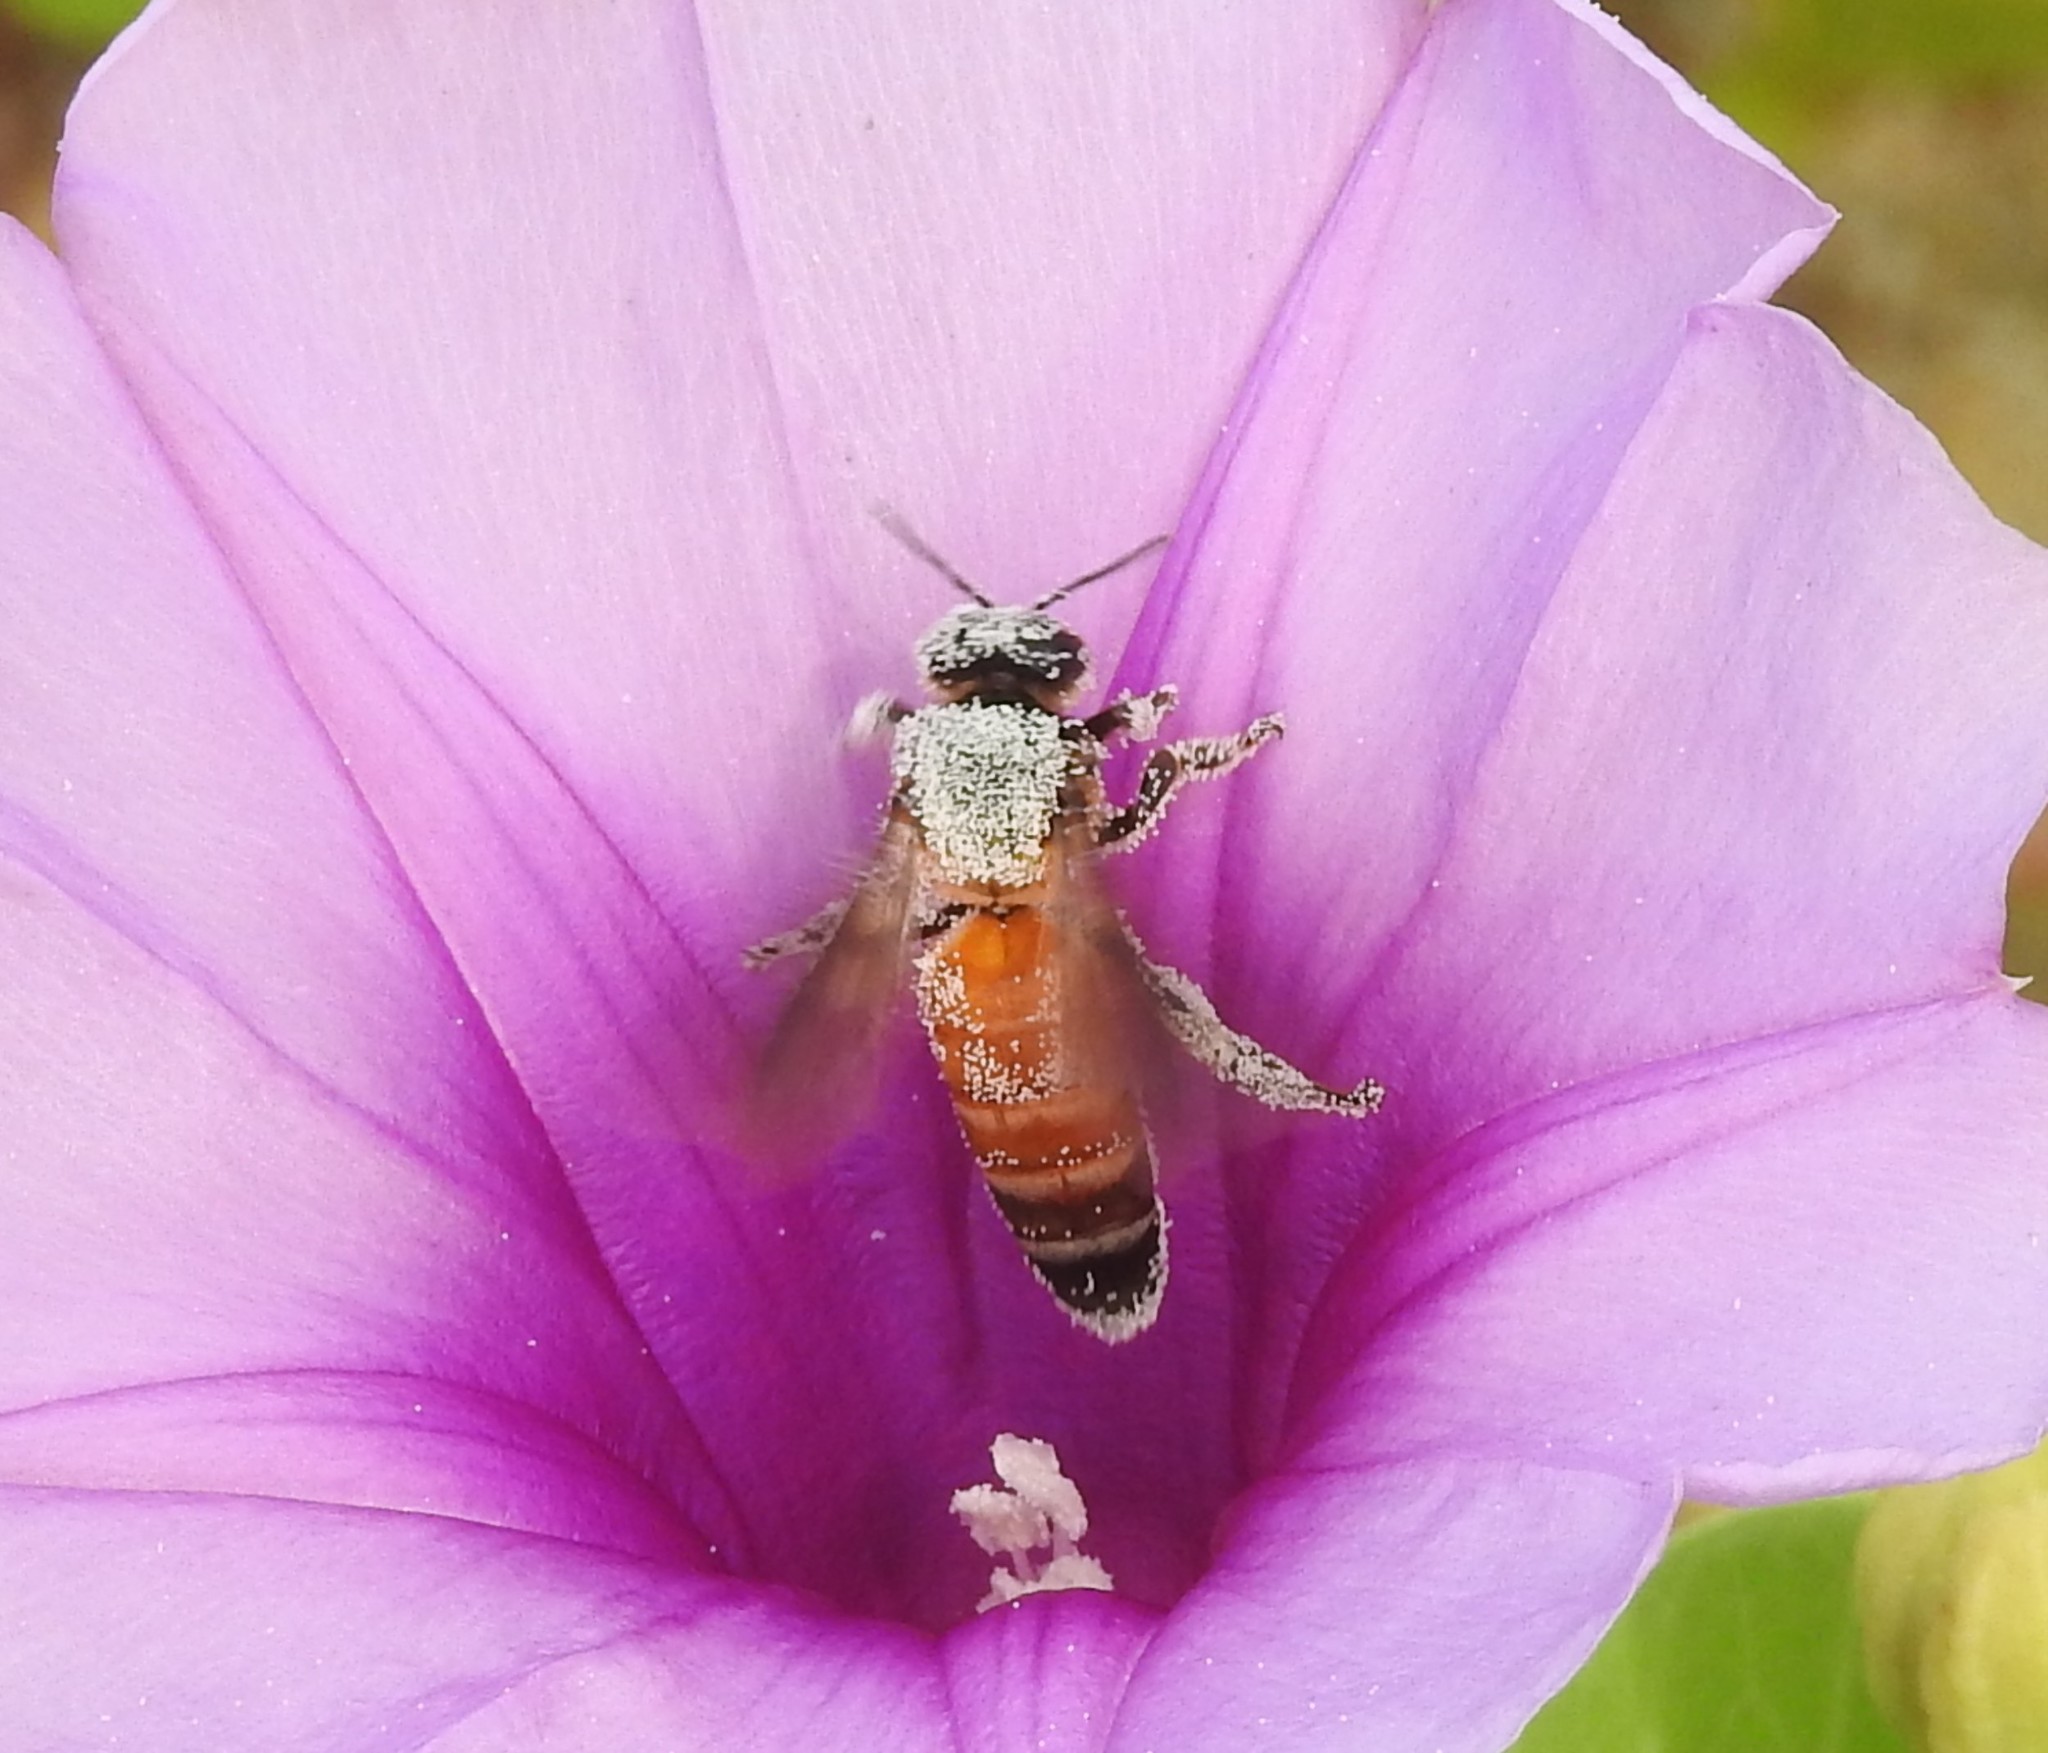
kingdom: Animalia
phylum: Arthropoda
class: Insecta
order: Hymenoptera
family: Apidae
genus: Apis
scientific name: Apis dorsata
